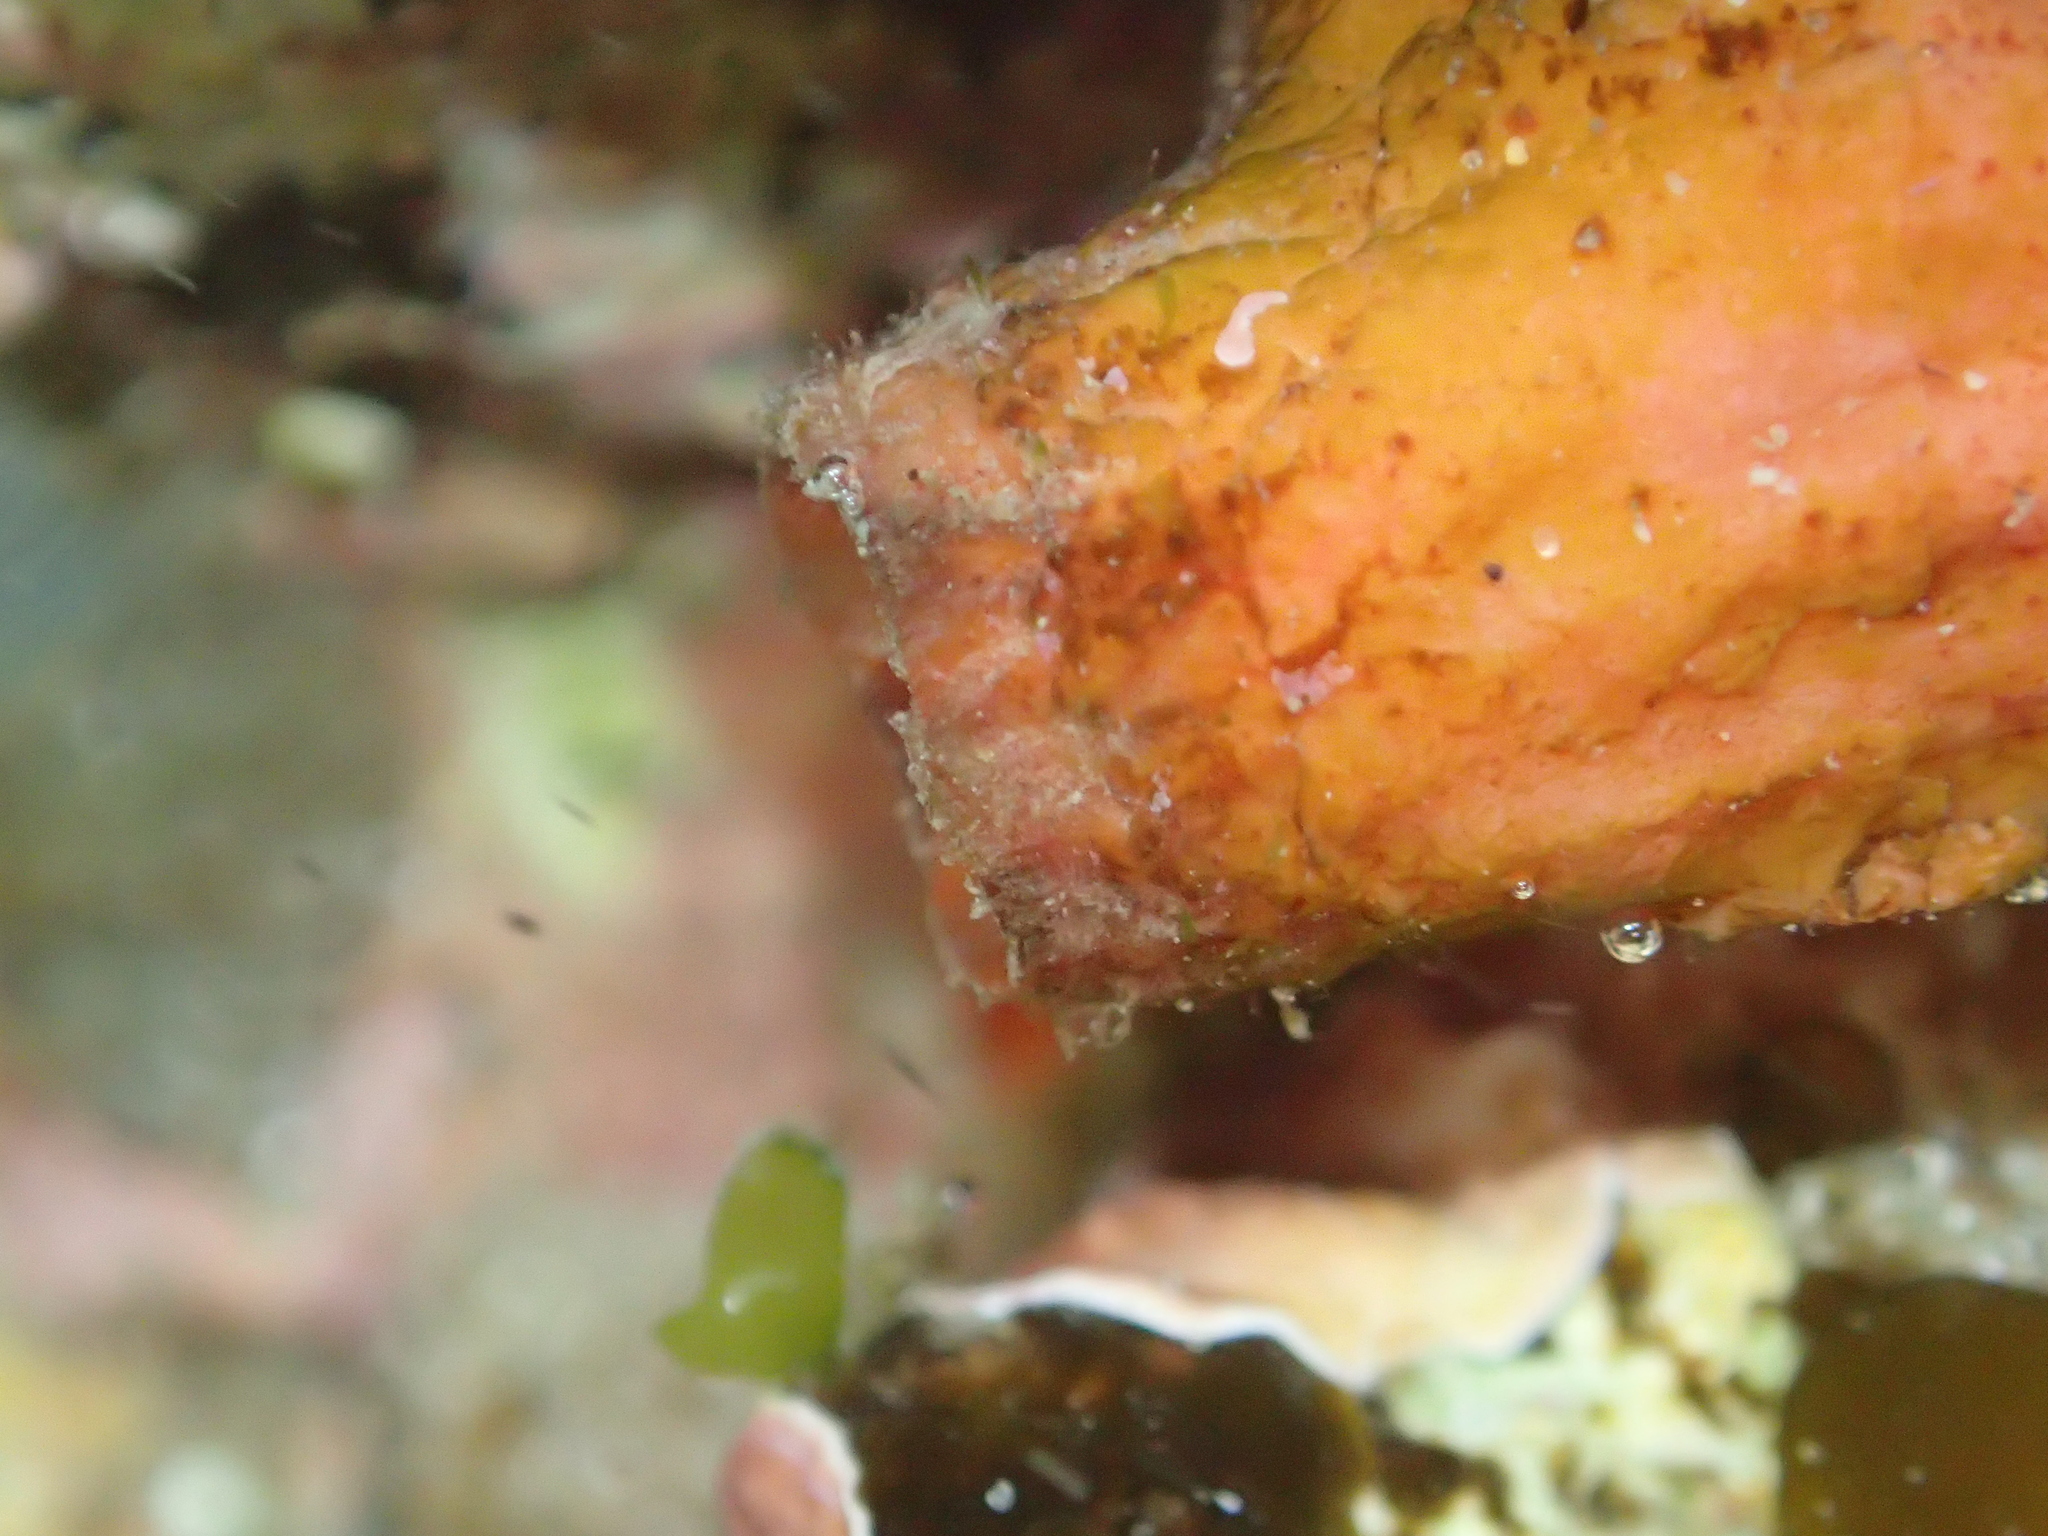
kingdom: Animalia
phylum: Chordata
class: Ascidiacea
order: Stolidobranchia
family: Styelidae
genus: Cnemidocarpa
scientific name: Cnemidocarpa bicornuta
